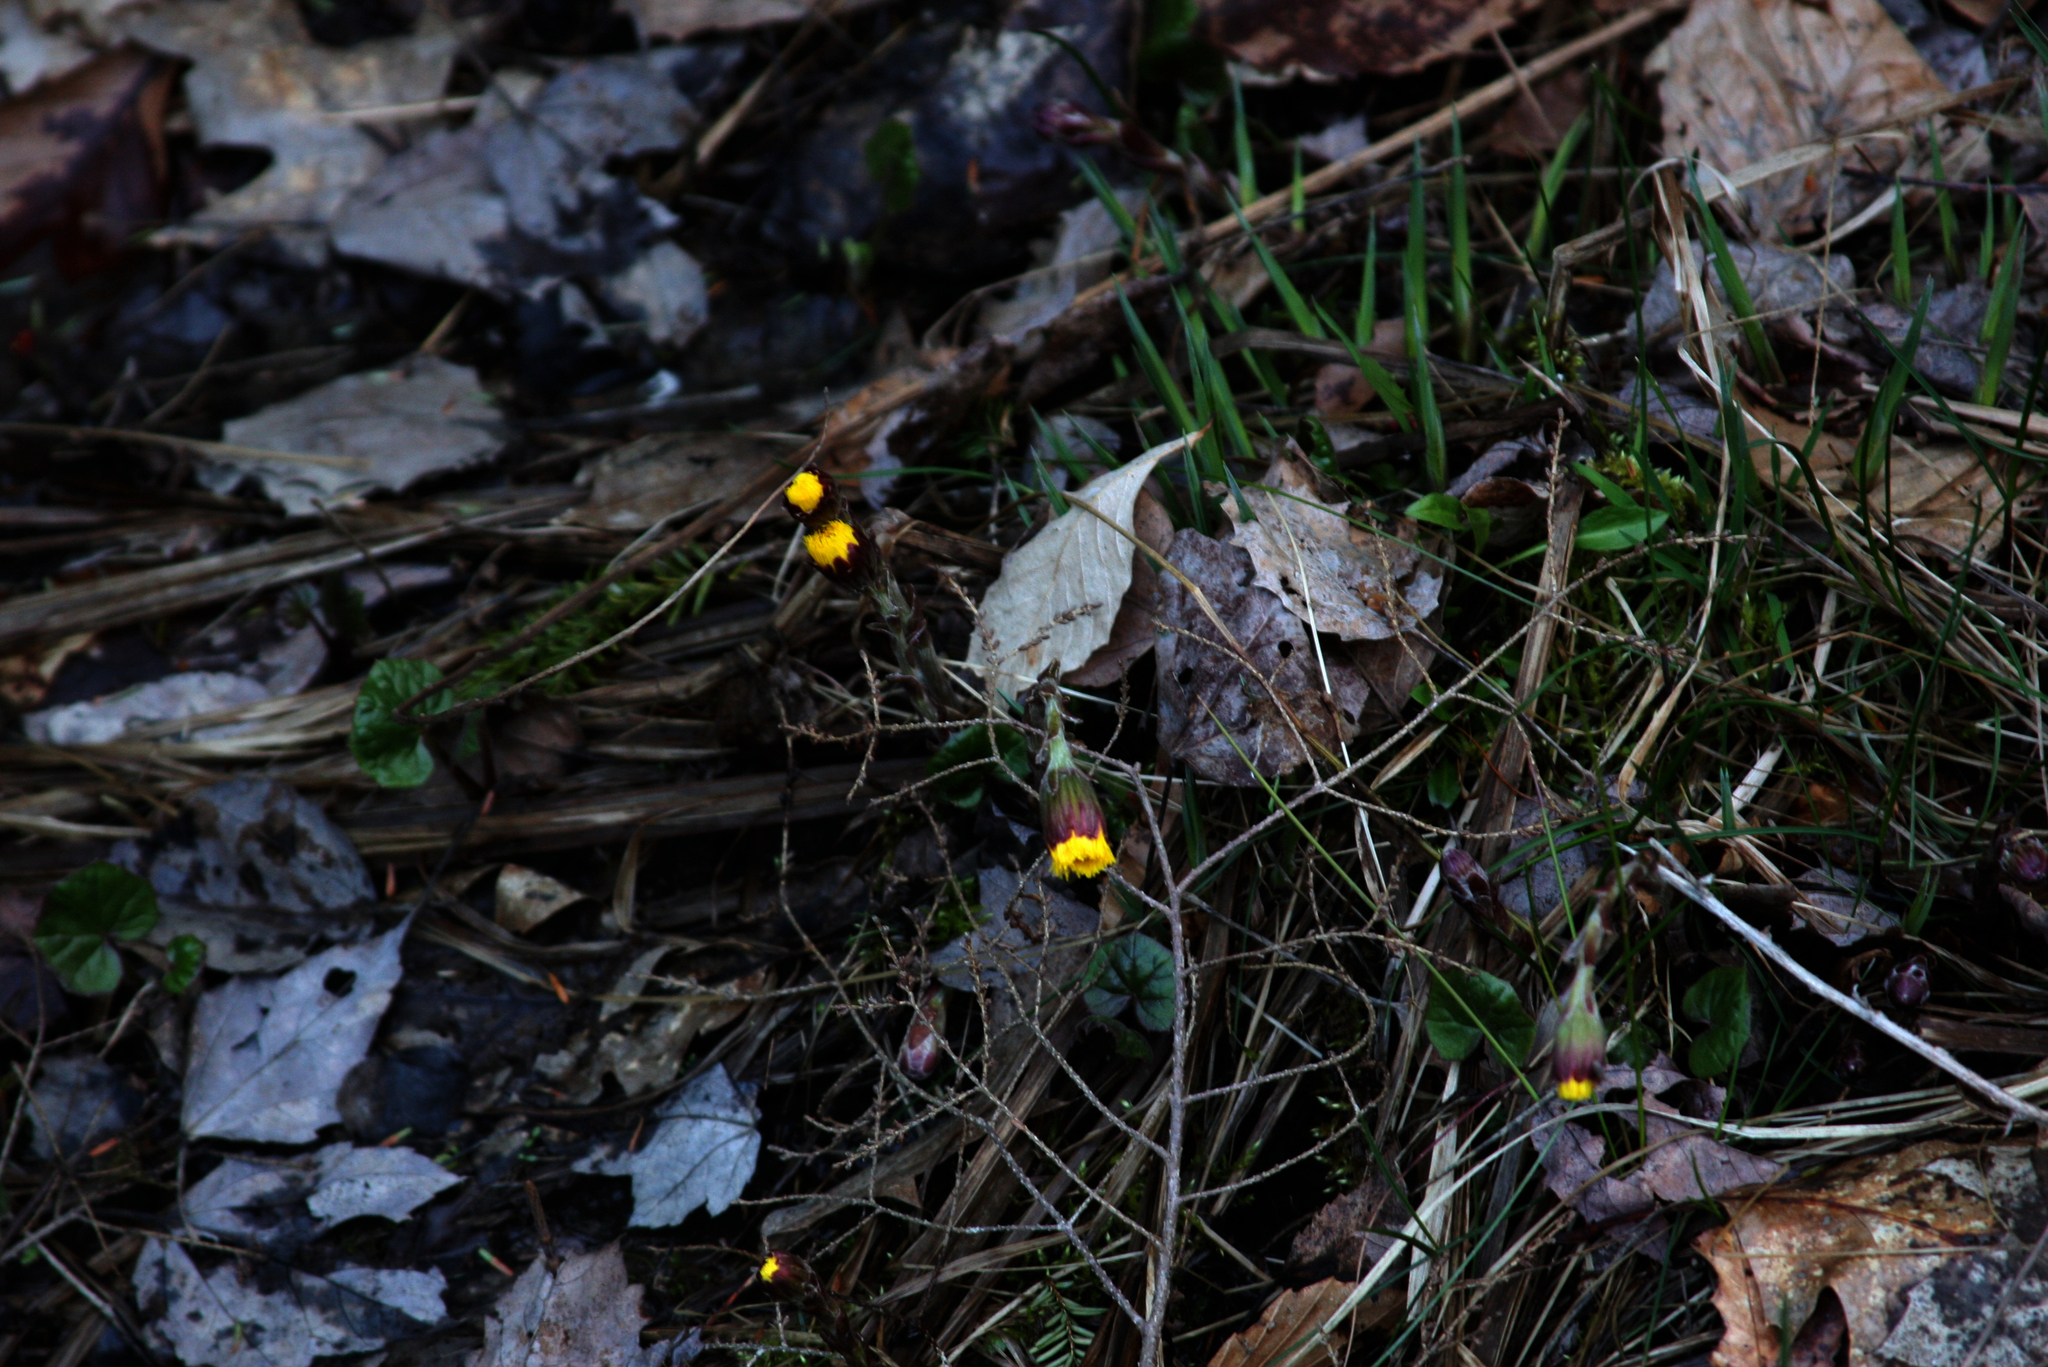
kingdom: Plantae
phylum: Tracheophyta
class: Magnoliopsida
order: Asterales
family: Asteraceae
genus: Tussilago
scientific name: Tussilago farfara
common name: Coltsfoot
